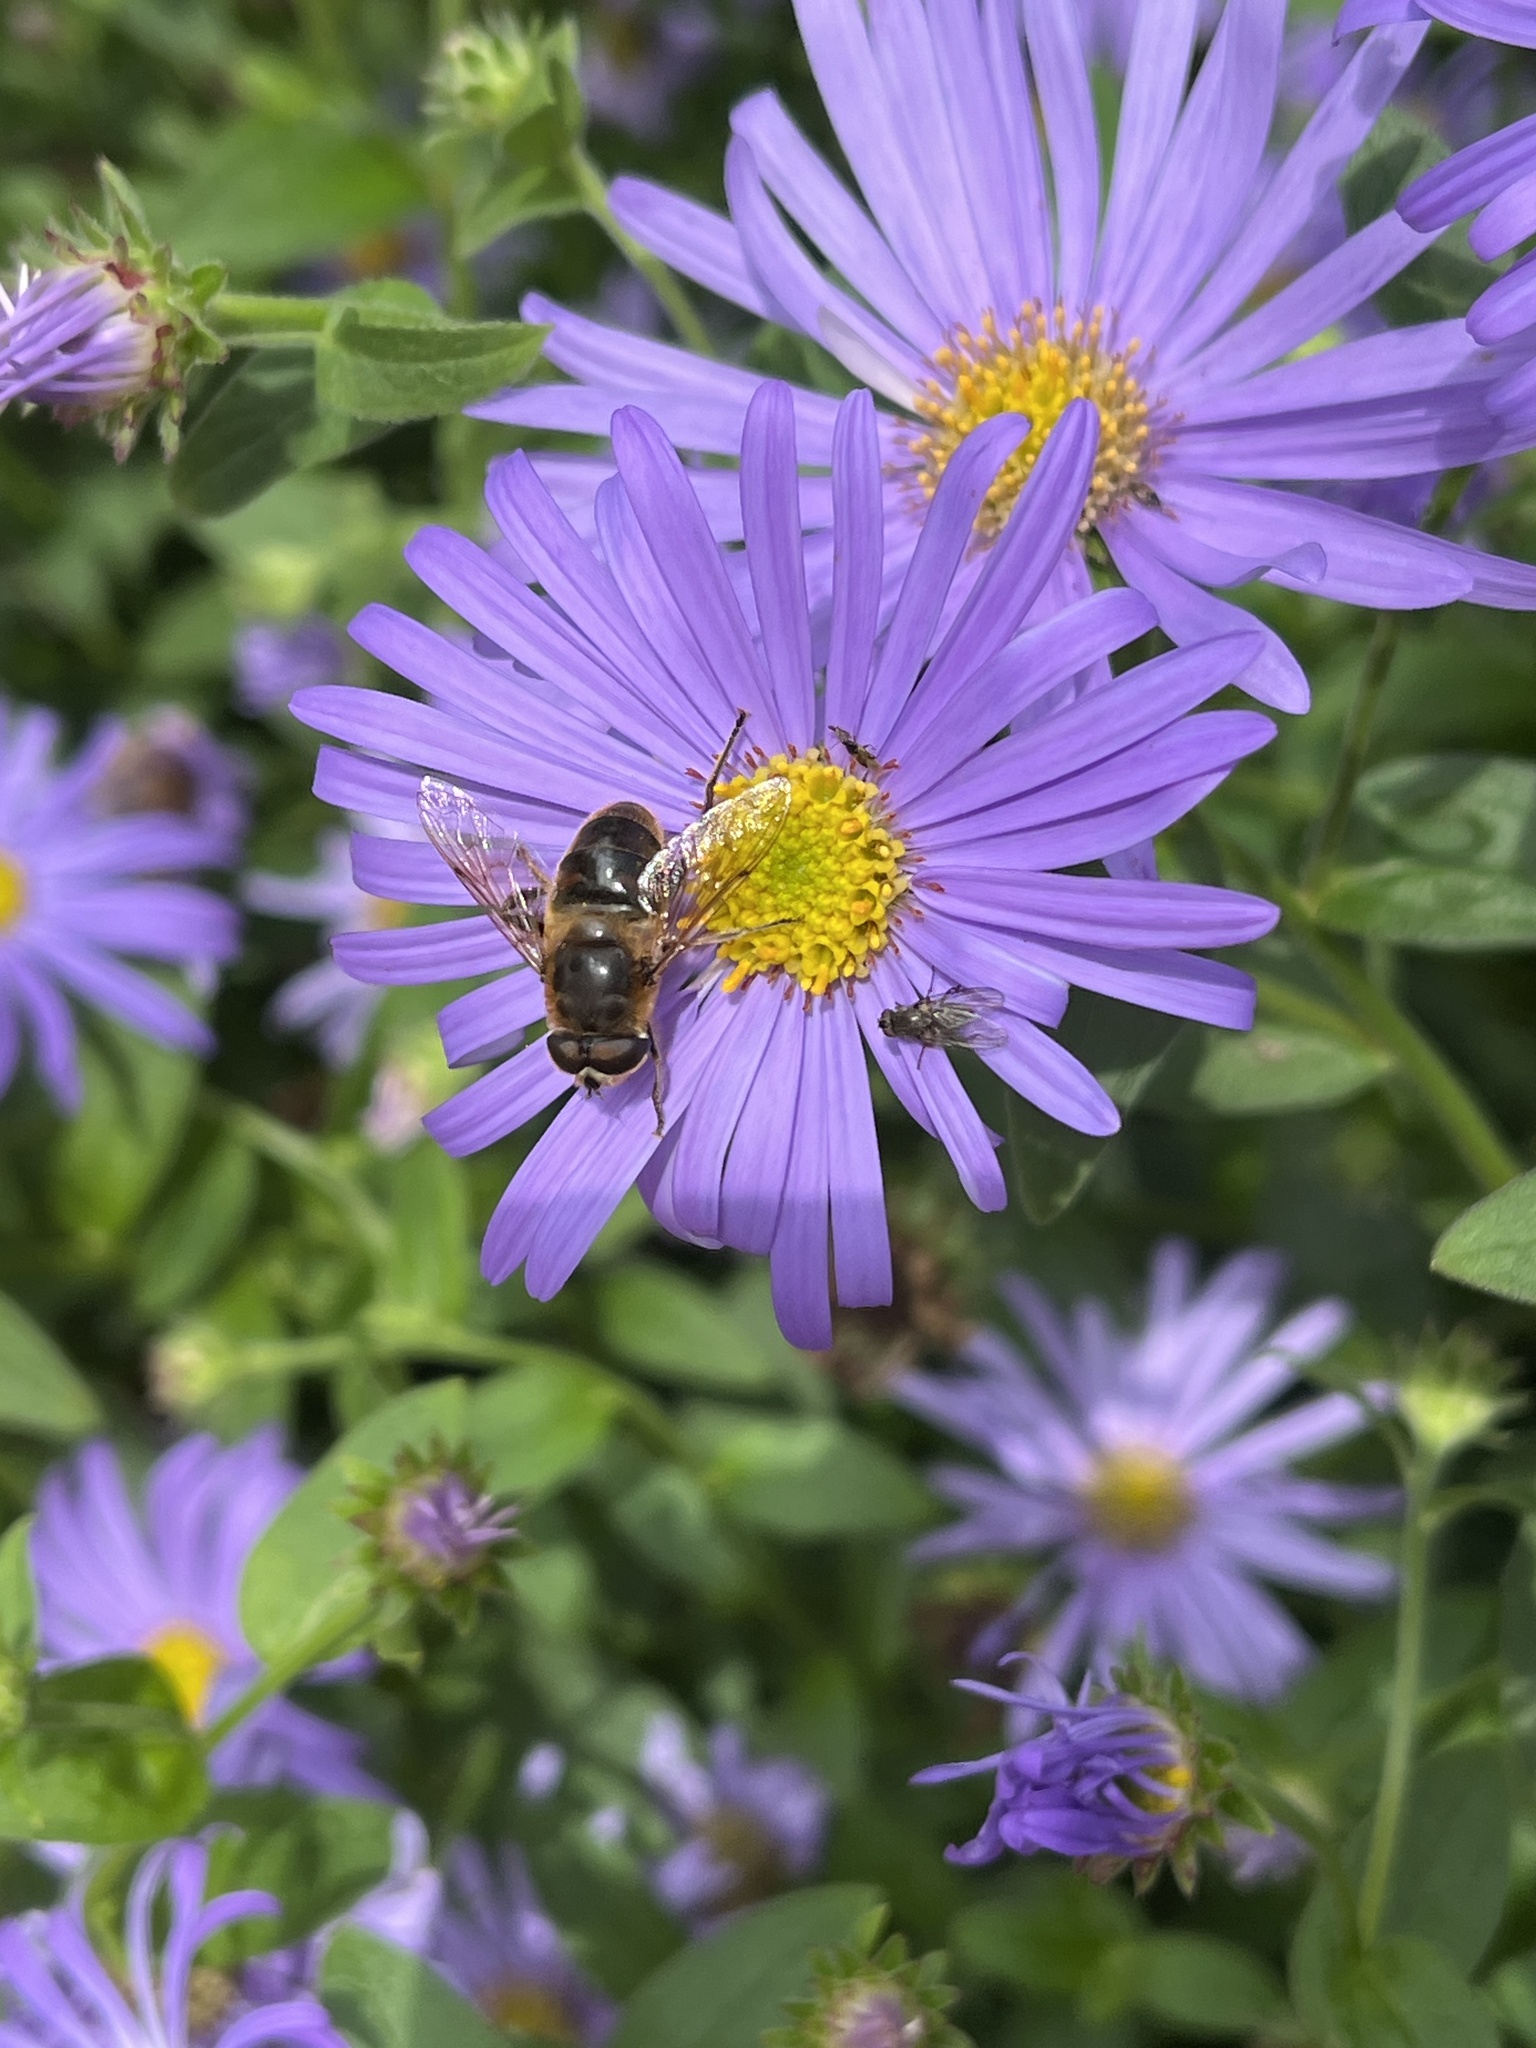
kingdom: Animalia
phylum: Arthropoda
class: Insecta
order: Diptera
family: Syrphidae
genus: Eristalis
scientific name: Eristalis tenax
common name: Drone fly
